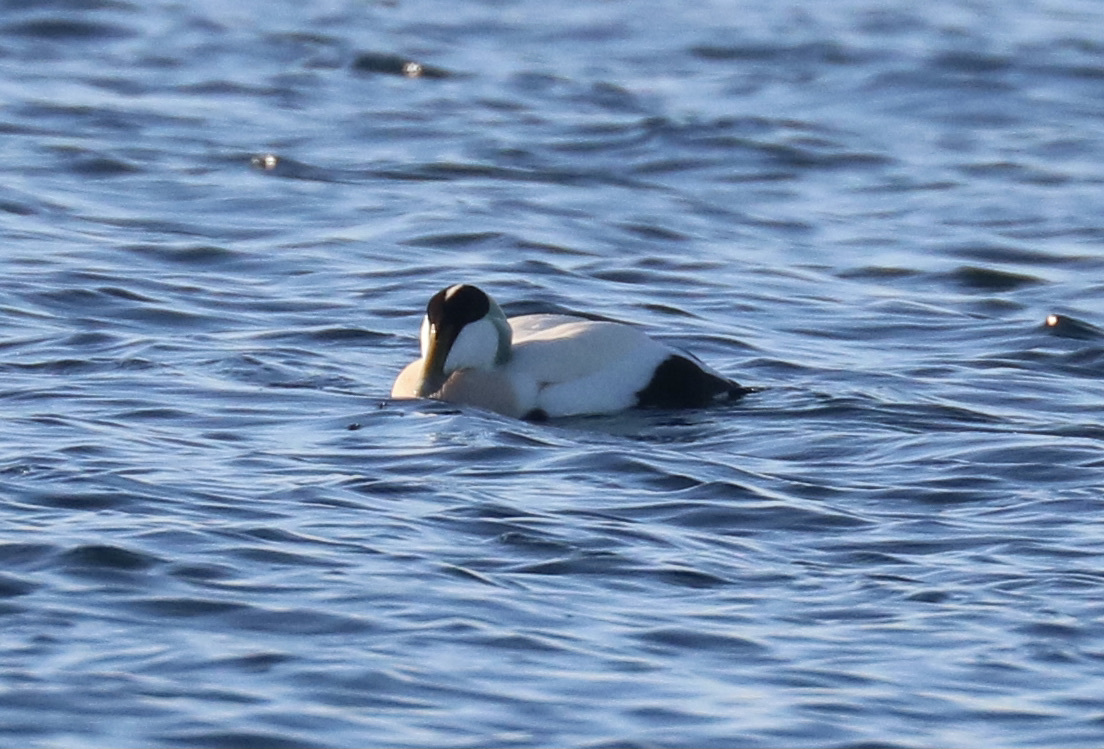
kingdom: Animalia
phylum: Chordata
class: Aves
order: Anseriformes
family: Anatidae
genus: Somateria
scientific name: Somateria mollissima
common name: Common eider
